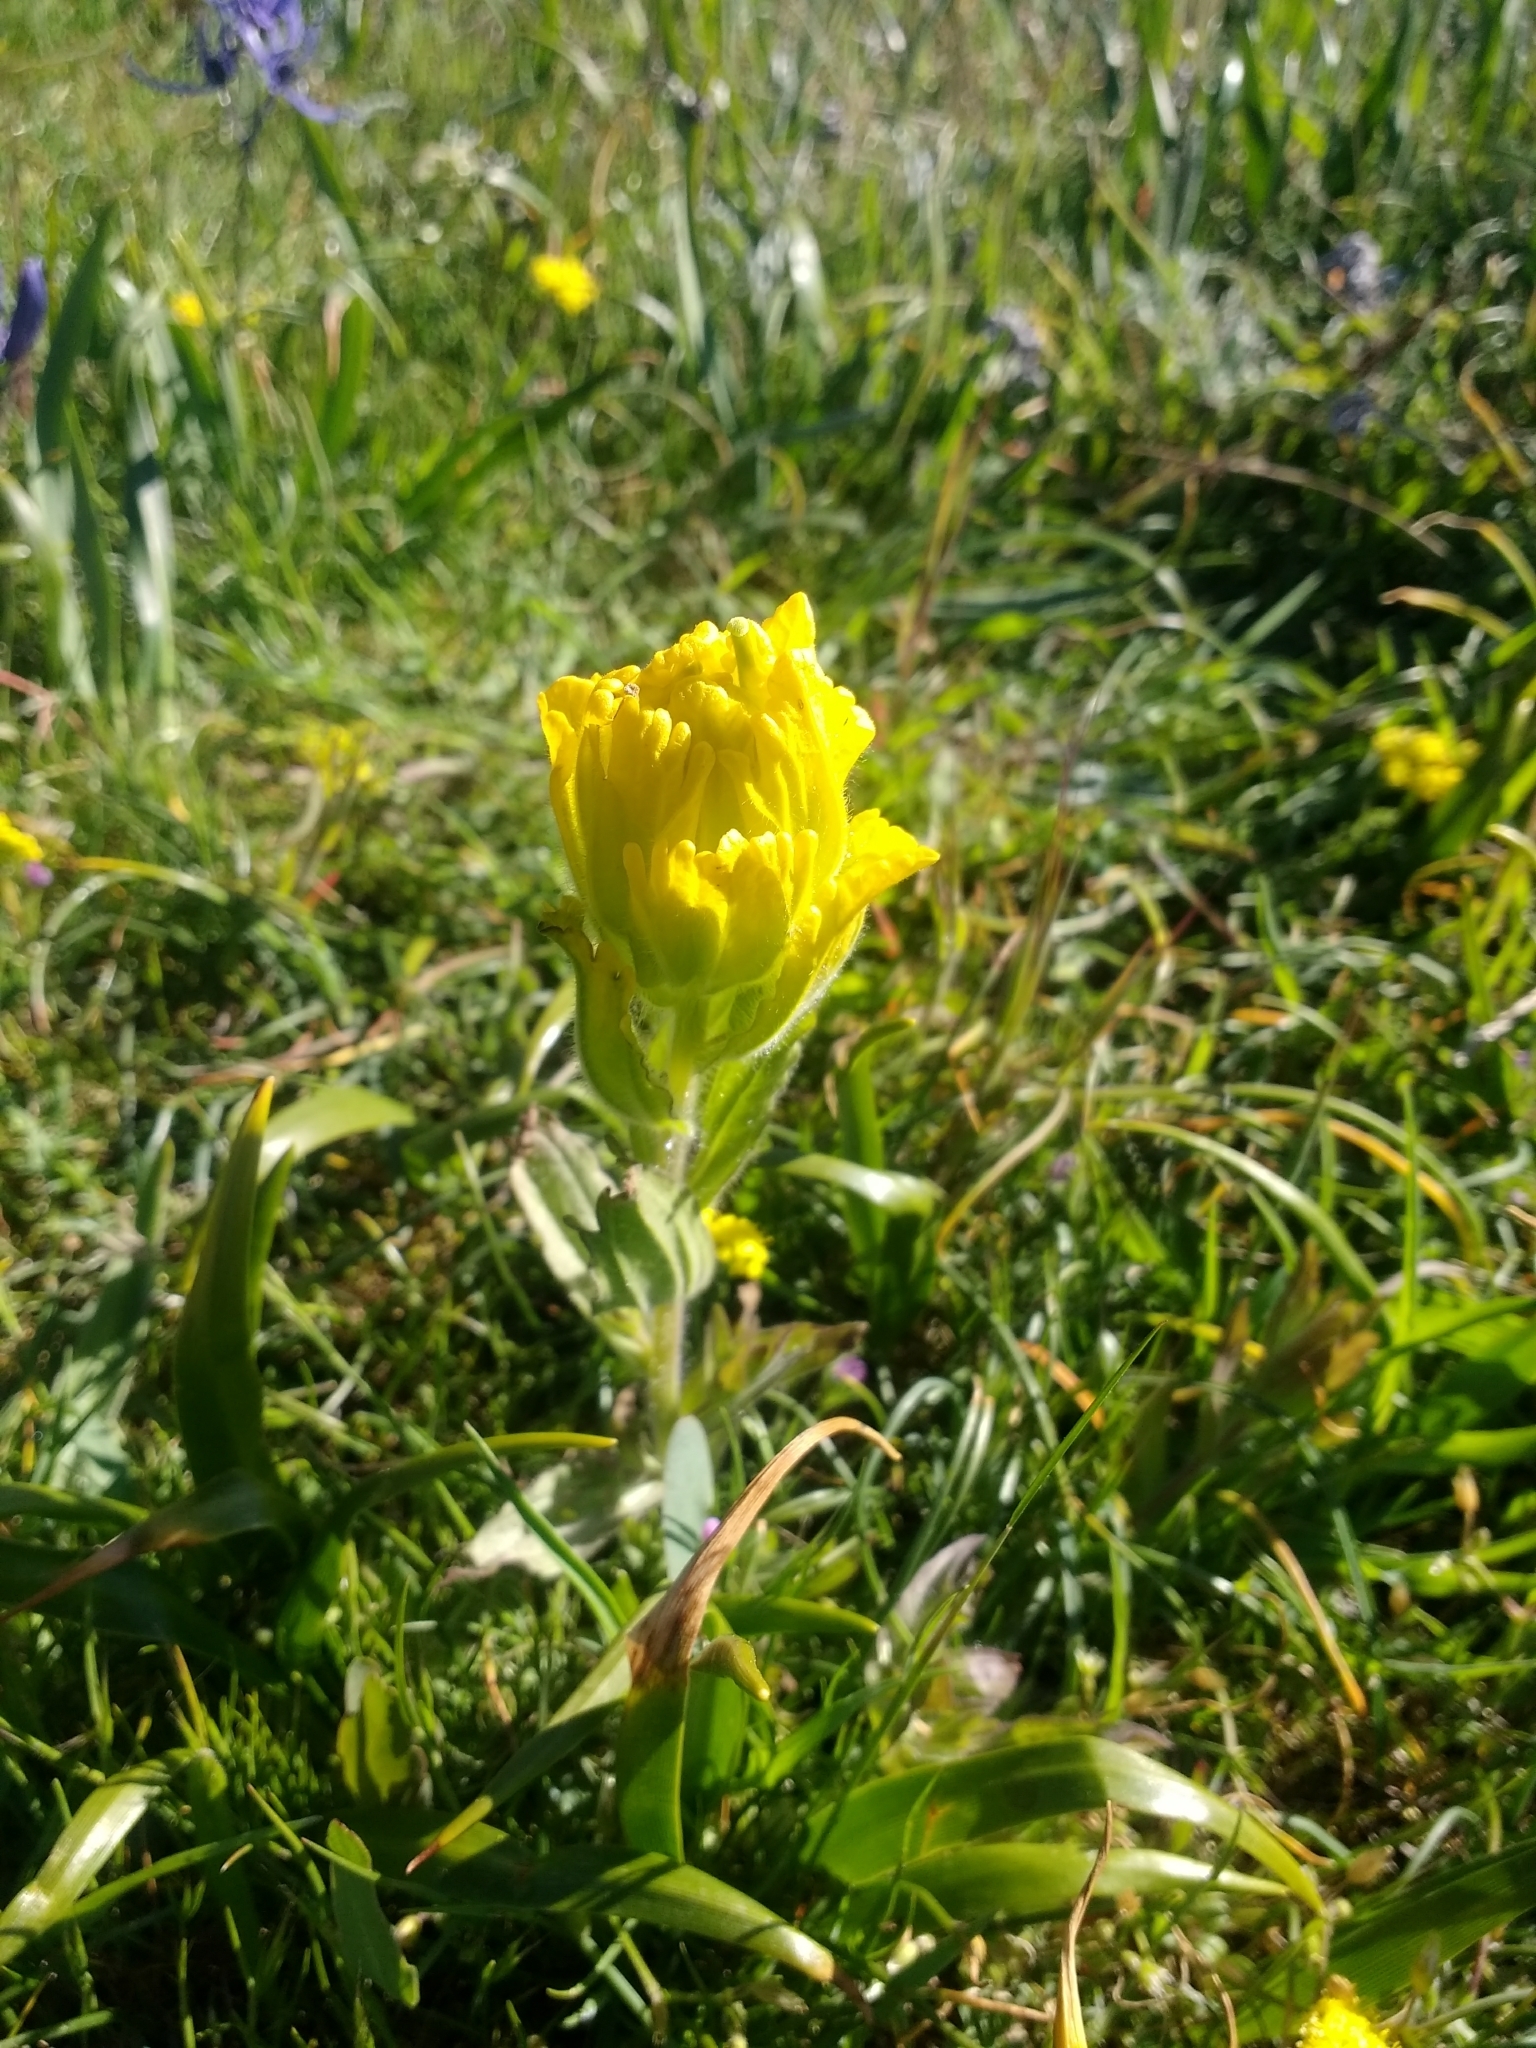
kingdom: Plantae
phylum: Tracheophyta
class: Magnoliopsida
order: Lamiales
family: Orobanchaceae
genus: Castilleja
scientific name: Castilleja levisecta
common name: Golden paintbrush
